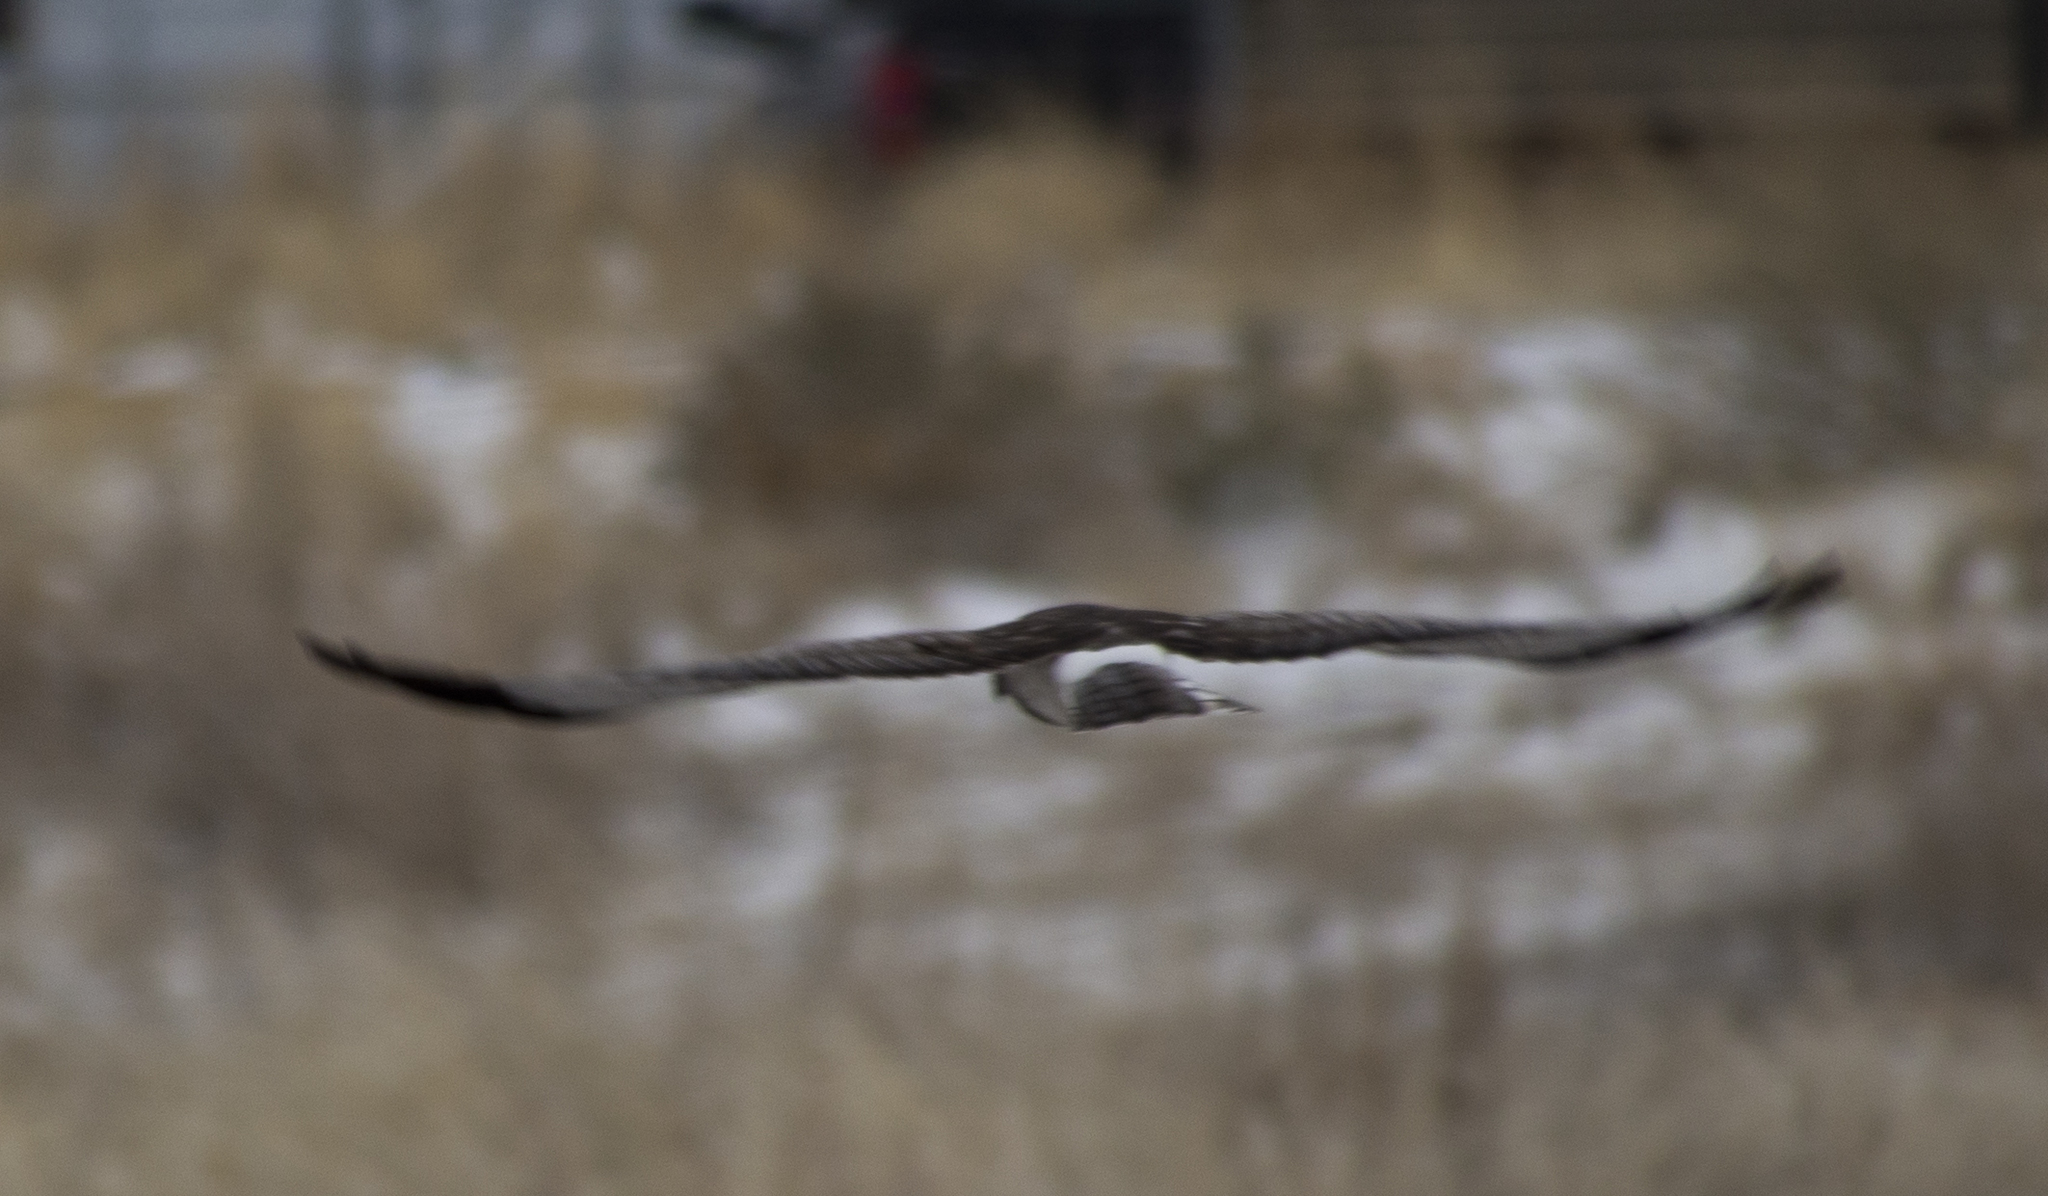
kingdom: Animalia
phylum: Chordata
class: Aves
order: Accipitriformes
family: Accipitridae
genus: Circus
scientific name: Circus cyaneus
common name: Hen harrier
